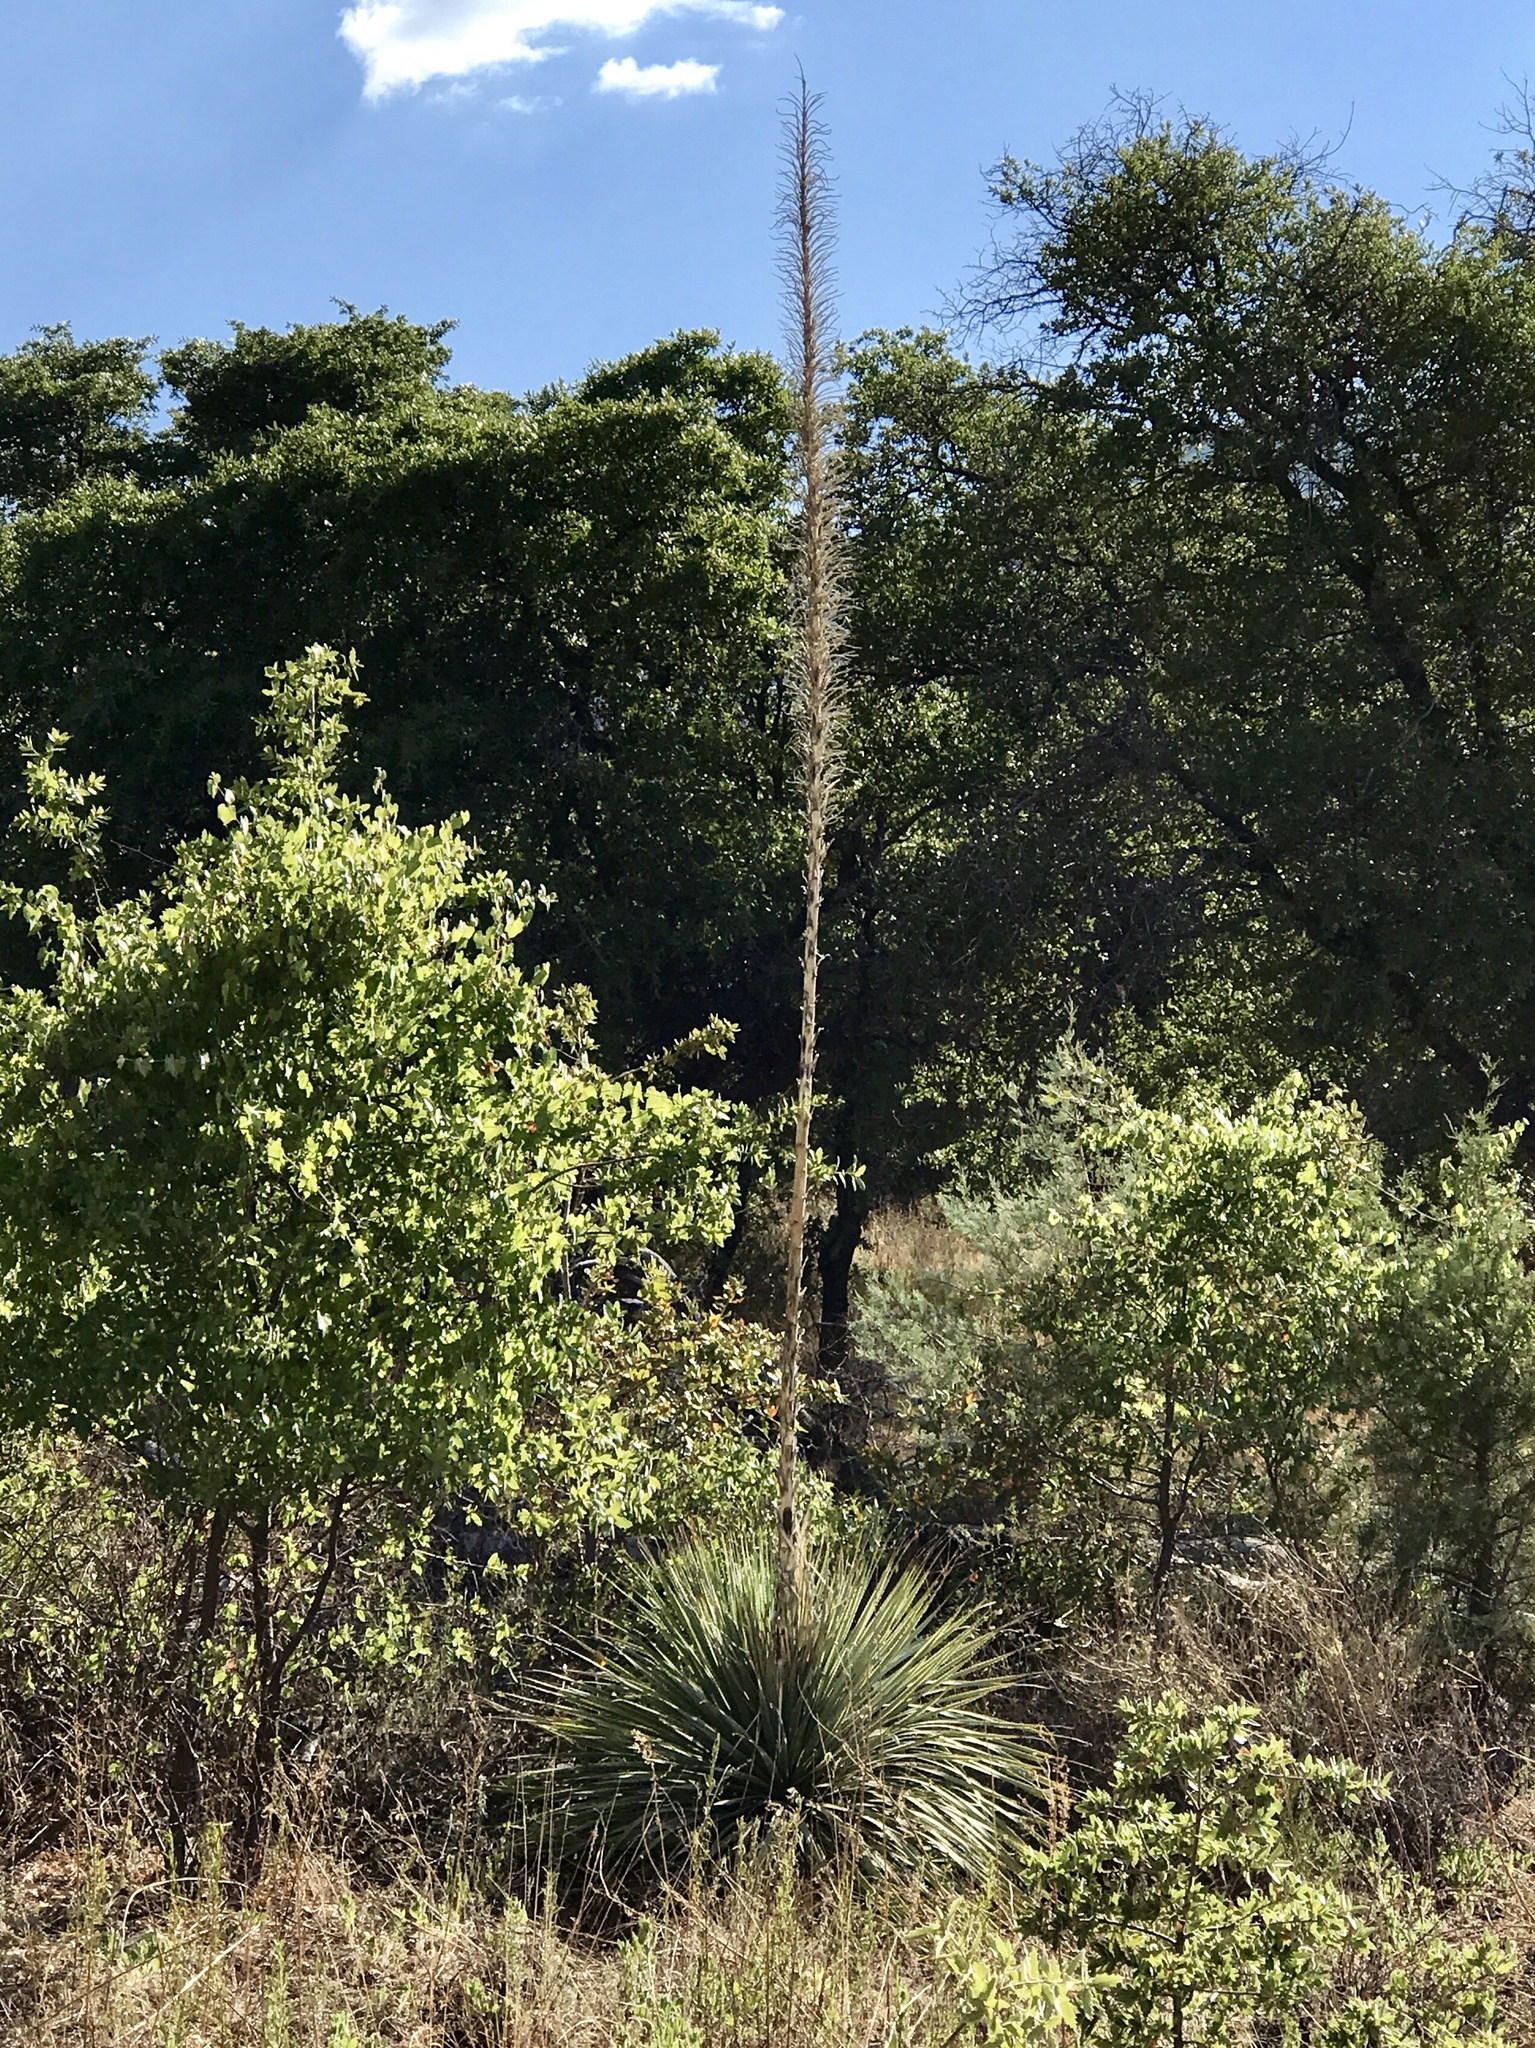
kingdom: Plantae
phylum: Tracheophyta
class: Liliopsida
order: Asparagales
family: Asparagaceae
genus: Dasylirion
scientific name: Dasylirion wheeleri
